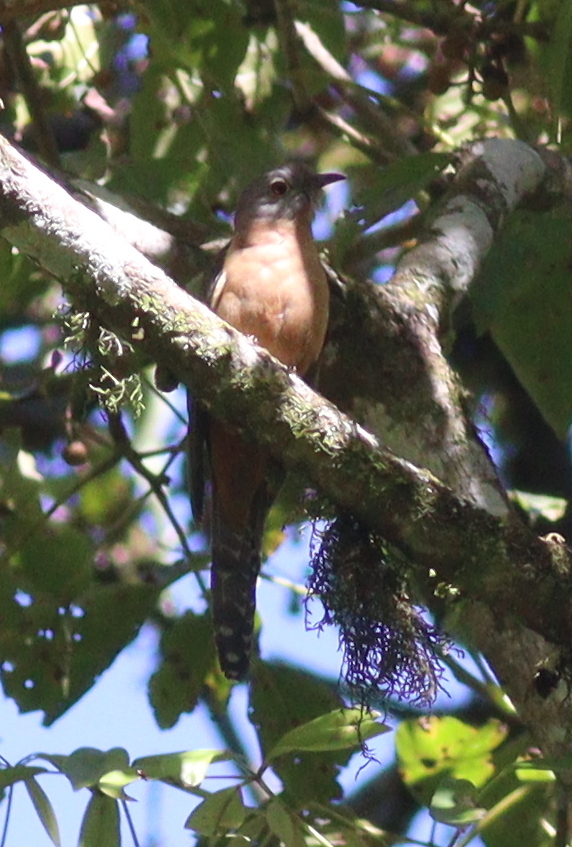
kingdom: Animalia
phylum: Chordata
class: Aves
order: Cuculiformes
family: Cuculidae
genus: Cacomantis
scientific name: Cacomantis variolosus
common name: Brush cuckoo
